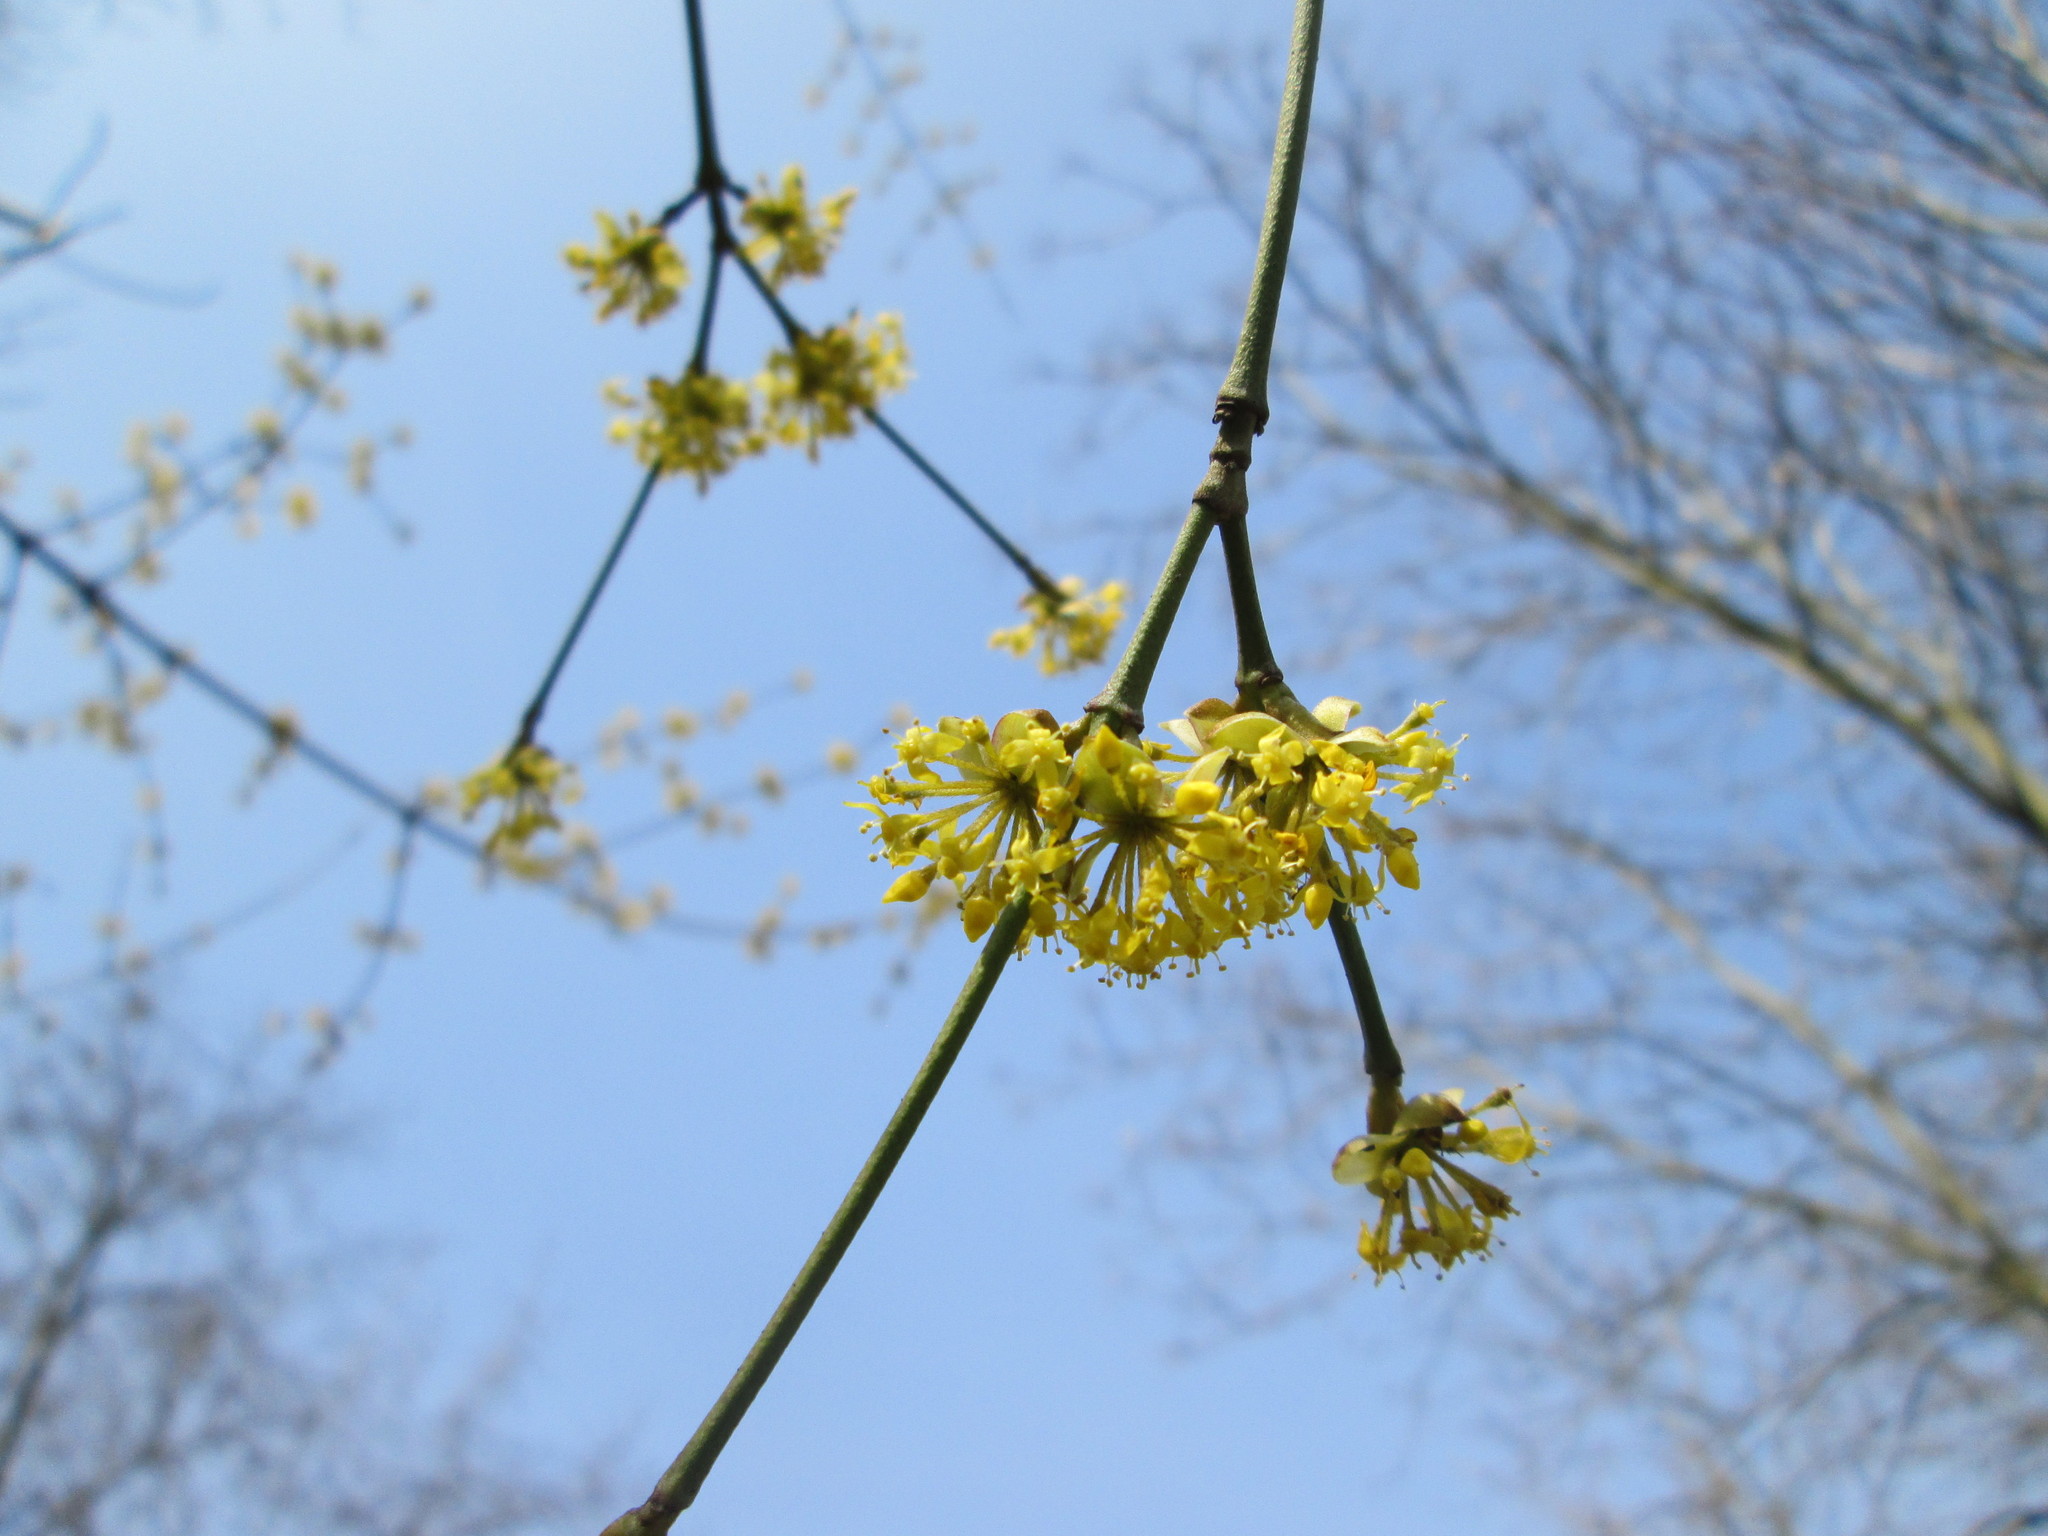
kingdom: Plantae
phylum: Tracheophyta
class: Magnoliopsida
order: Cornales
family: Cornaceae
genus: Cornus
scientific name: Cornus mas
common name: Cornelian-cherry
